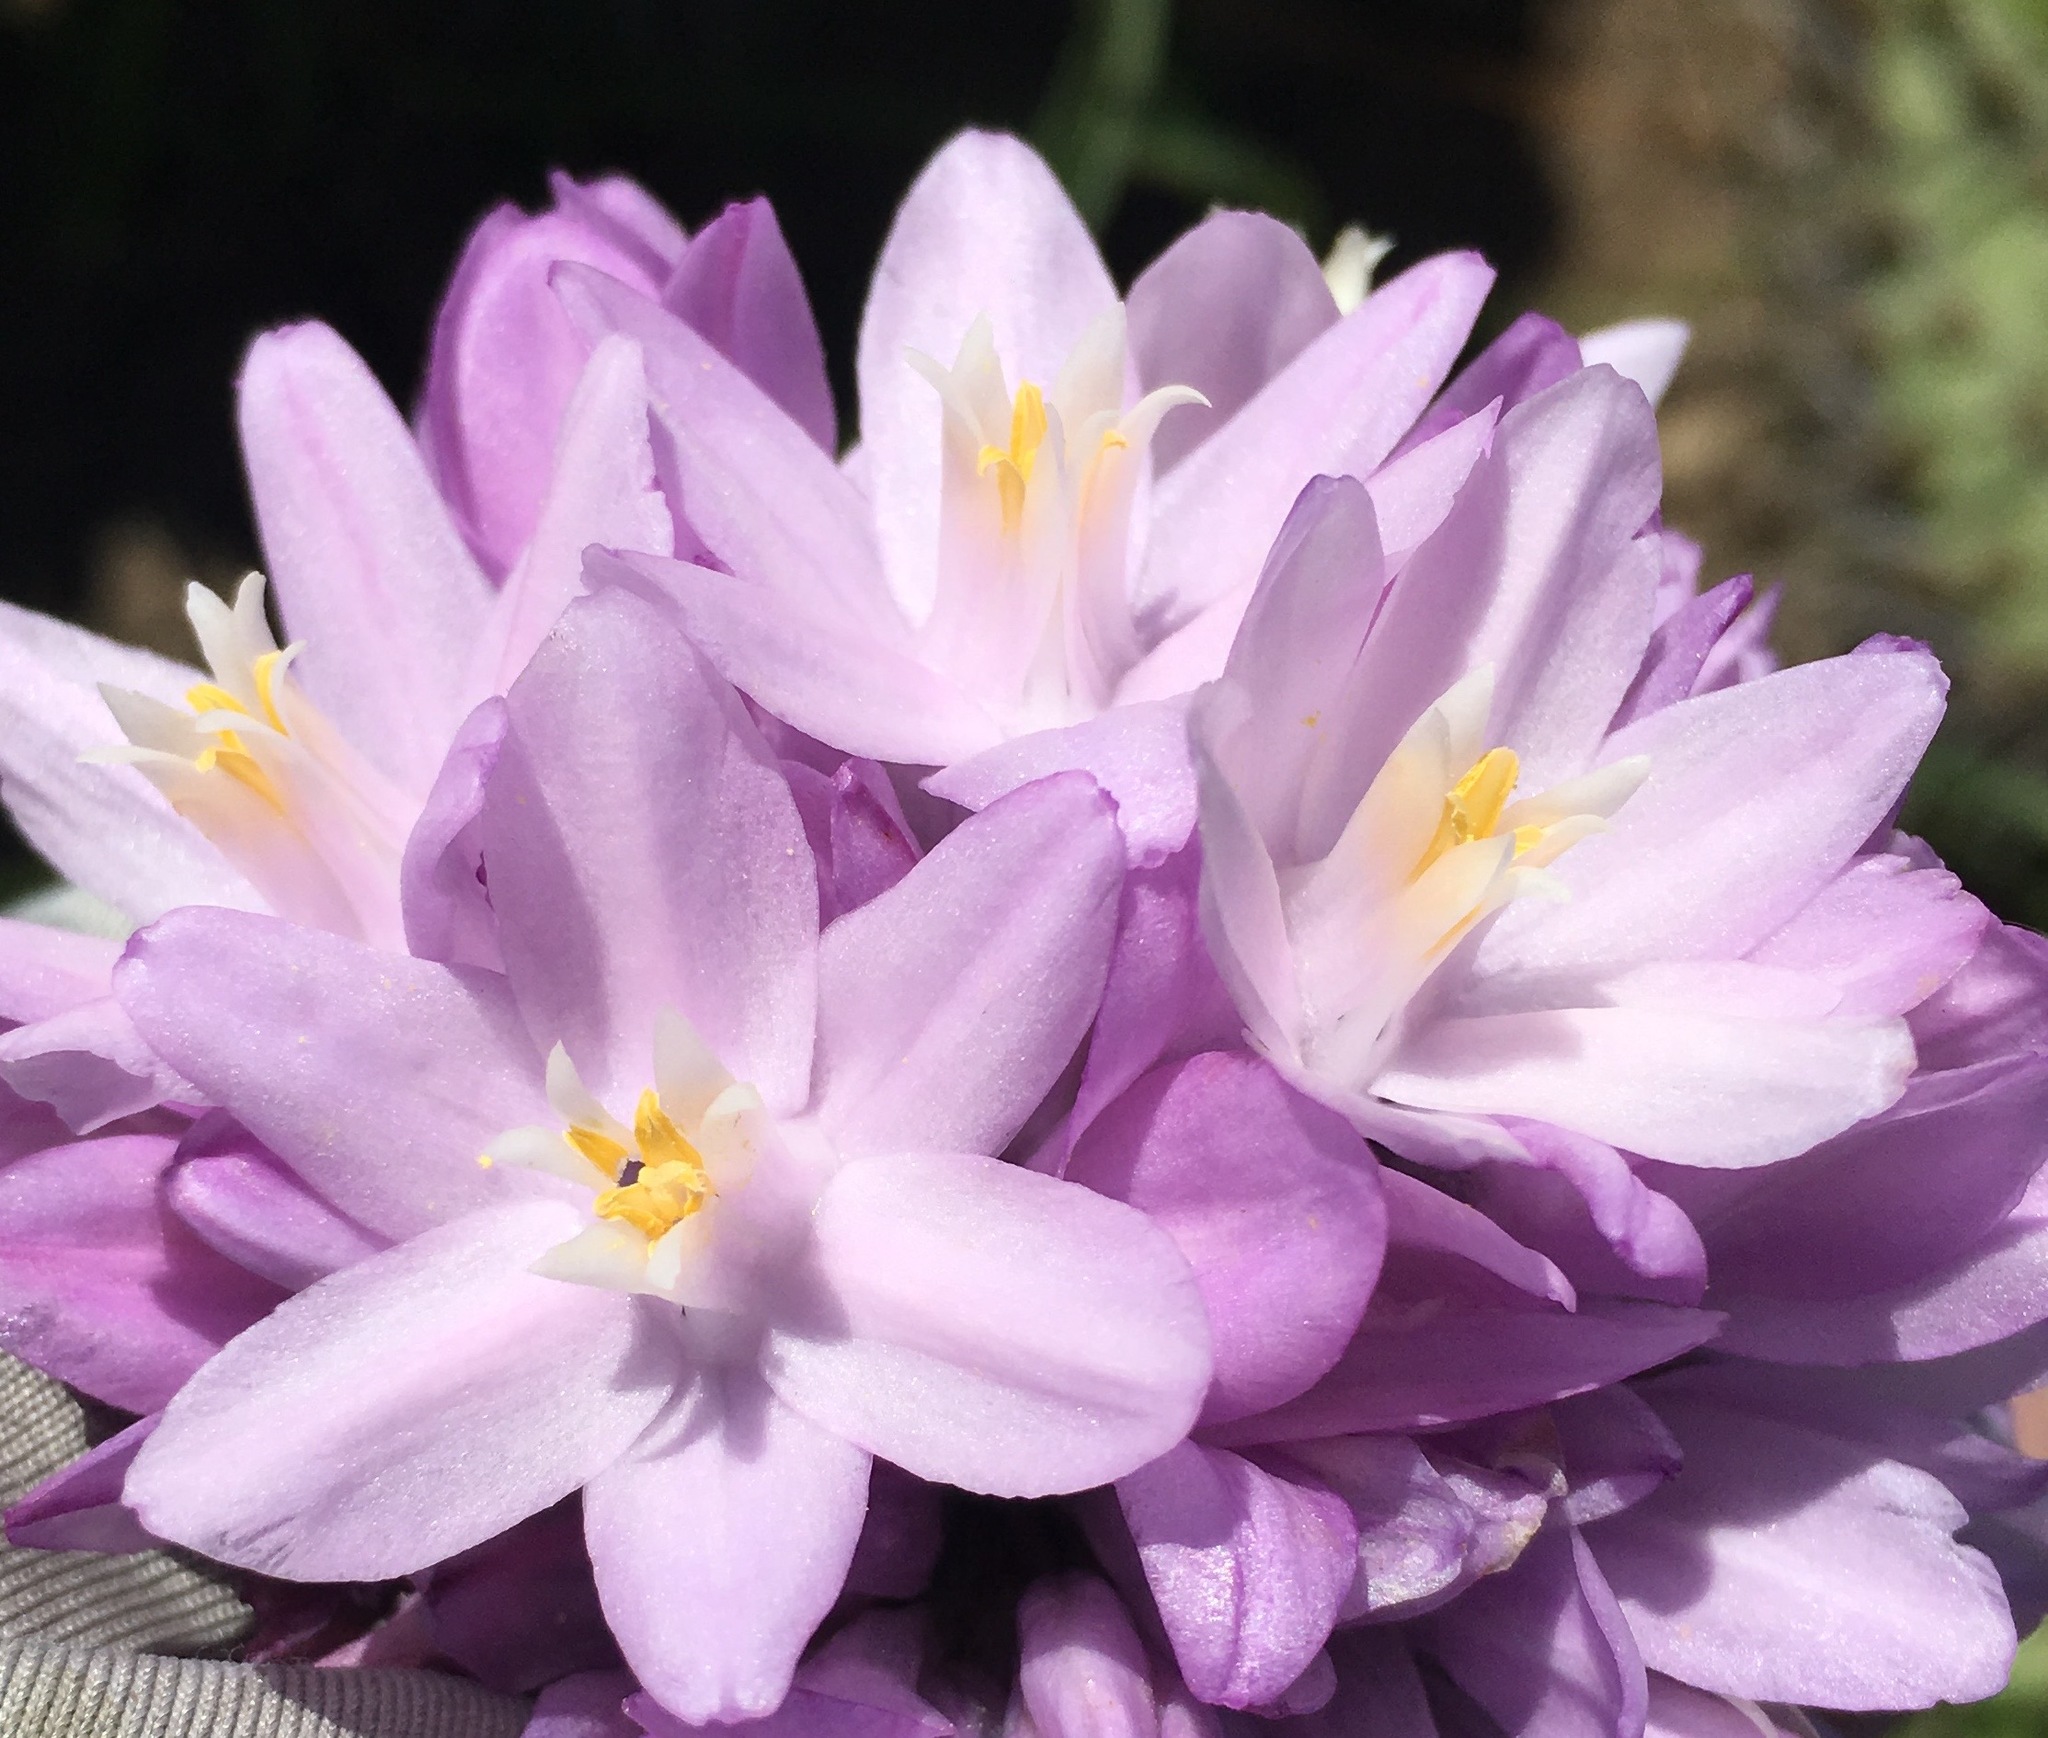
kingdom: Plantae
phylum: Tracheophyta
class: Liliopsida
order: Asparagales
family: Asparagaceae
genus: Dipterostemon
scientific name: Dipterostemon capitatus
